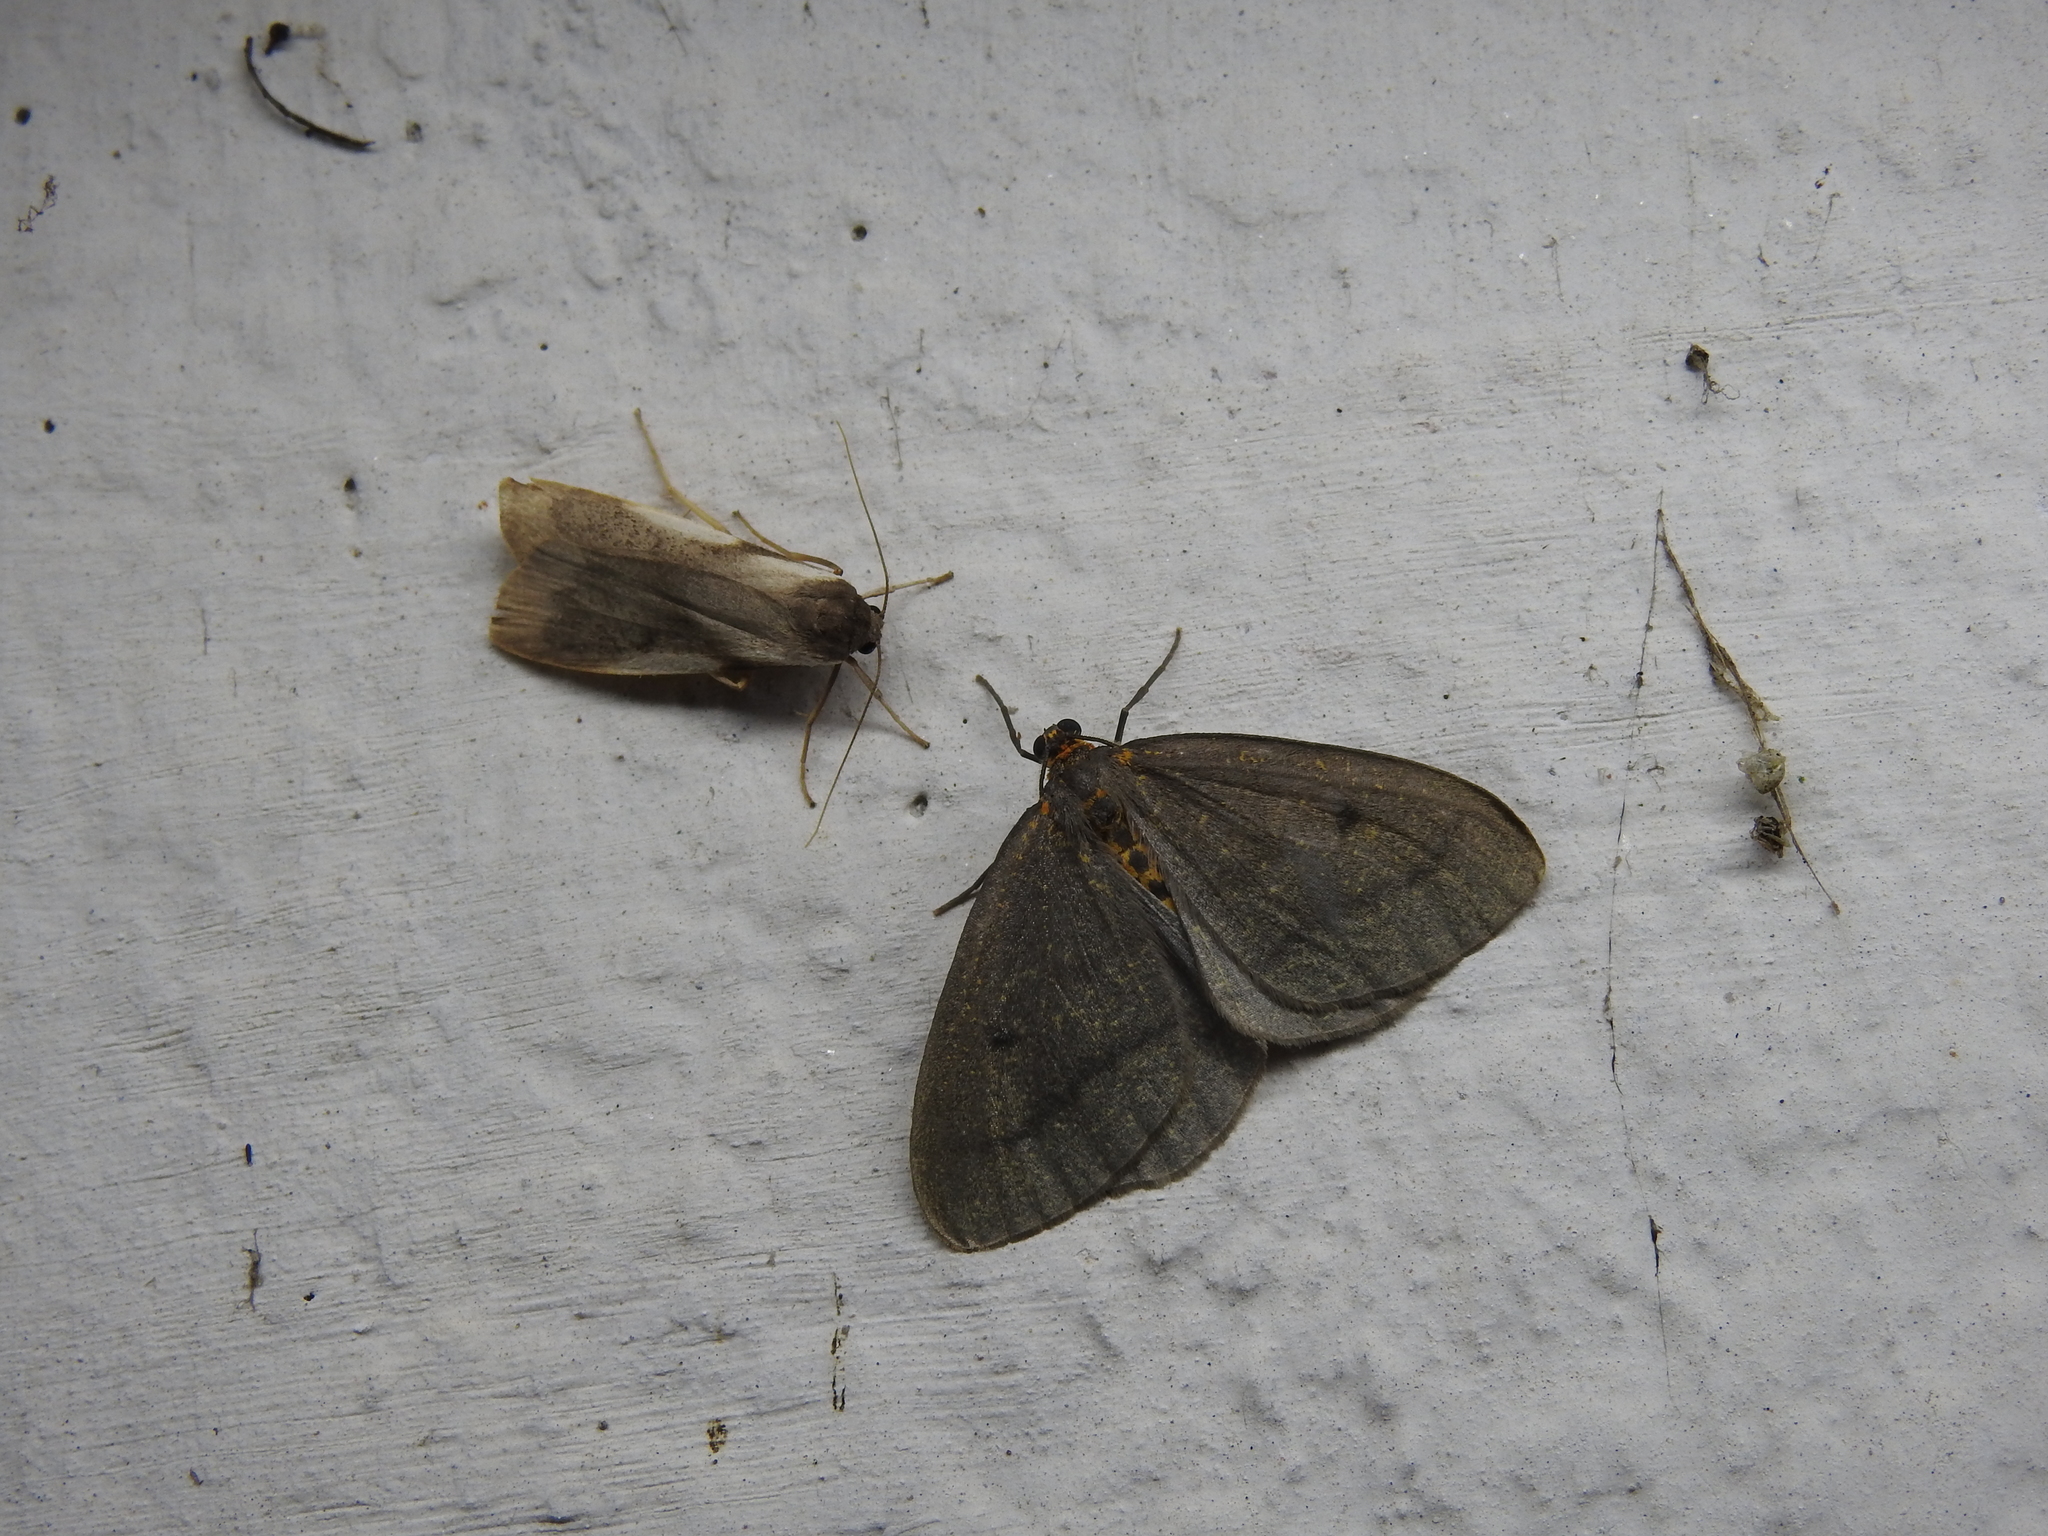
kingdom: Animalia
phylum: Arthropoda
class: Insecta
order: Lepidoptera
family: Geometridae
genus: Abraxas
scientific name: Abraxas poliaria
